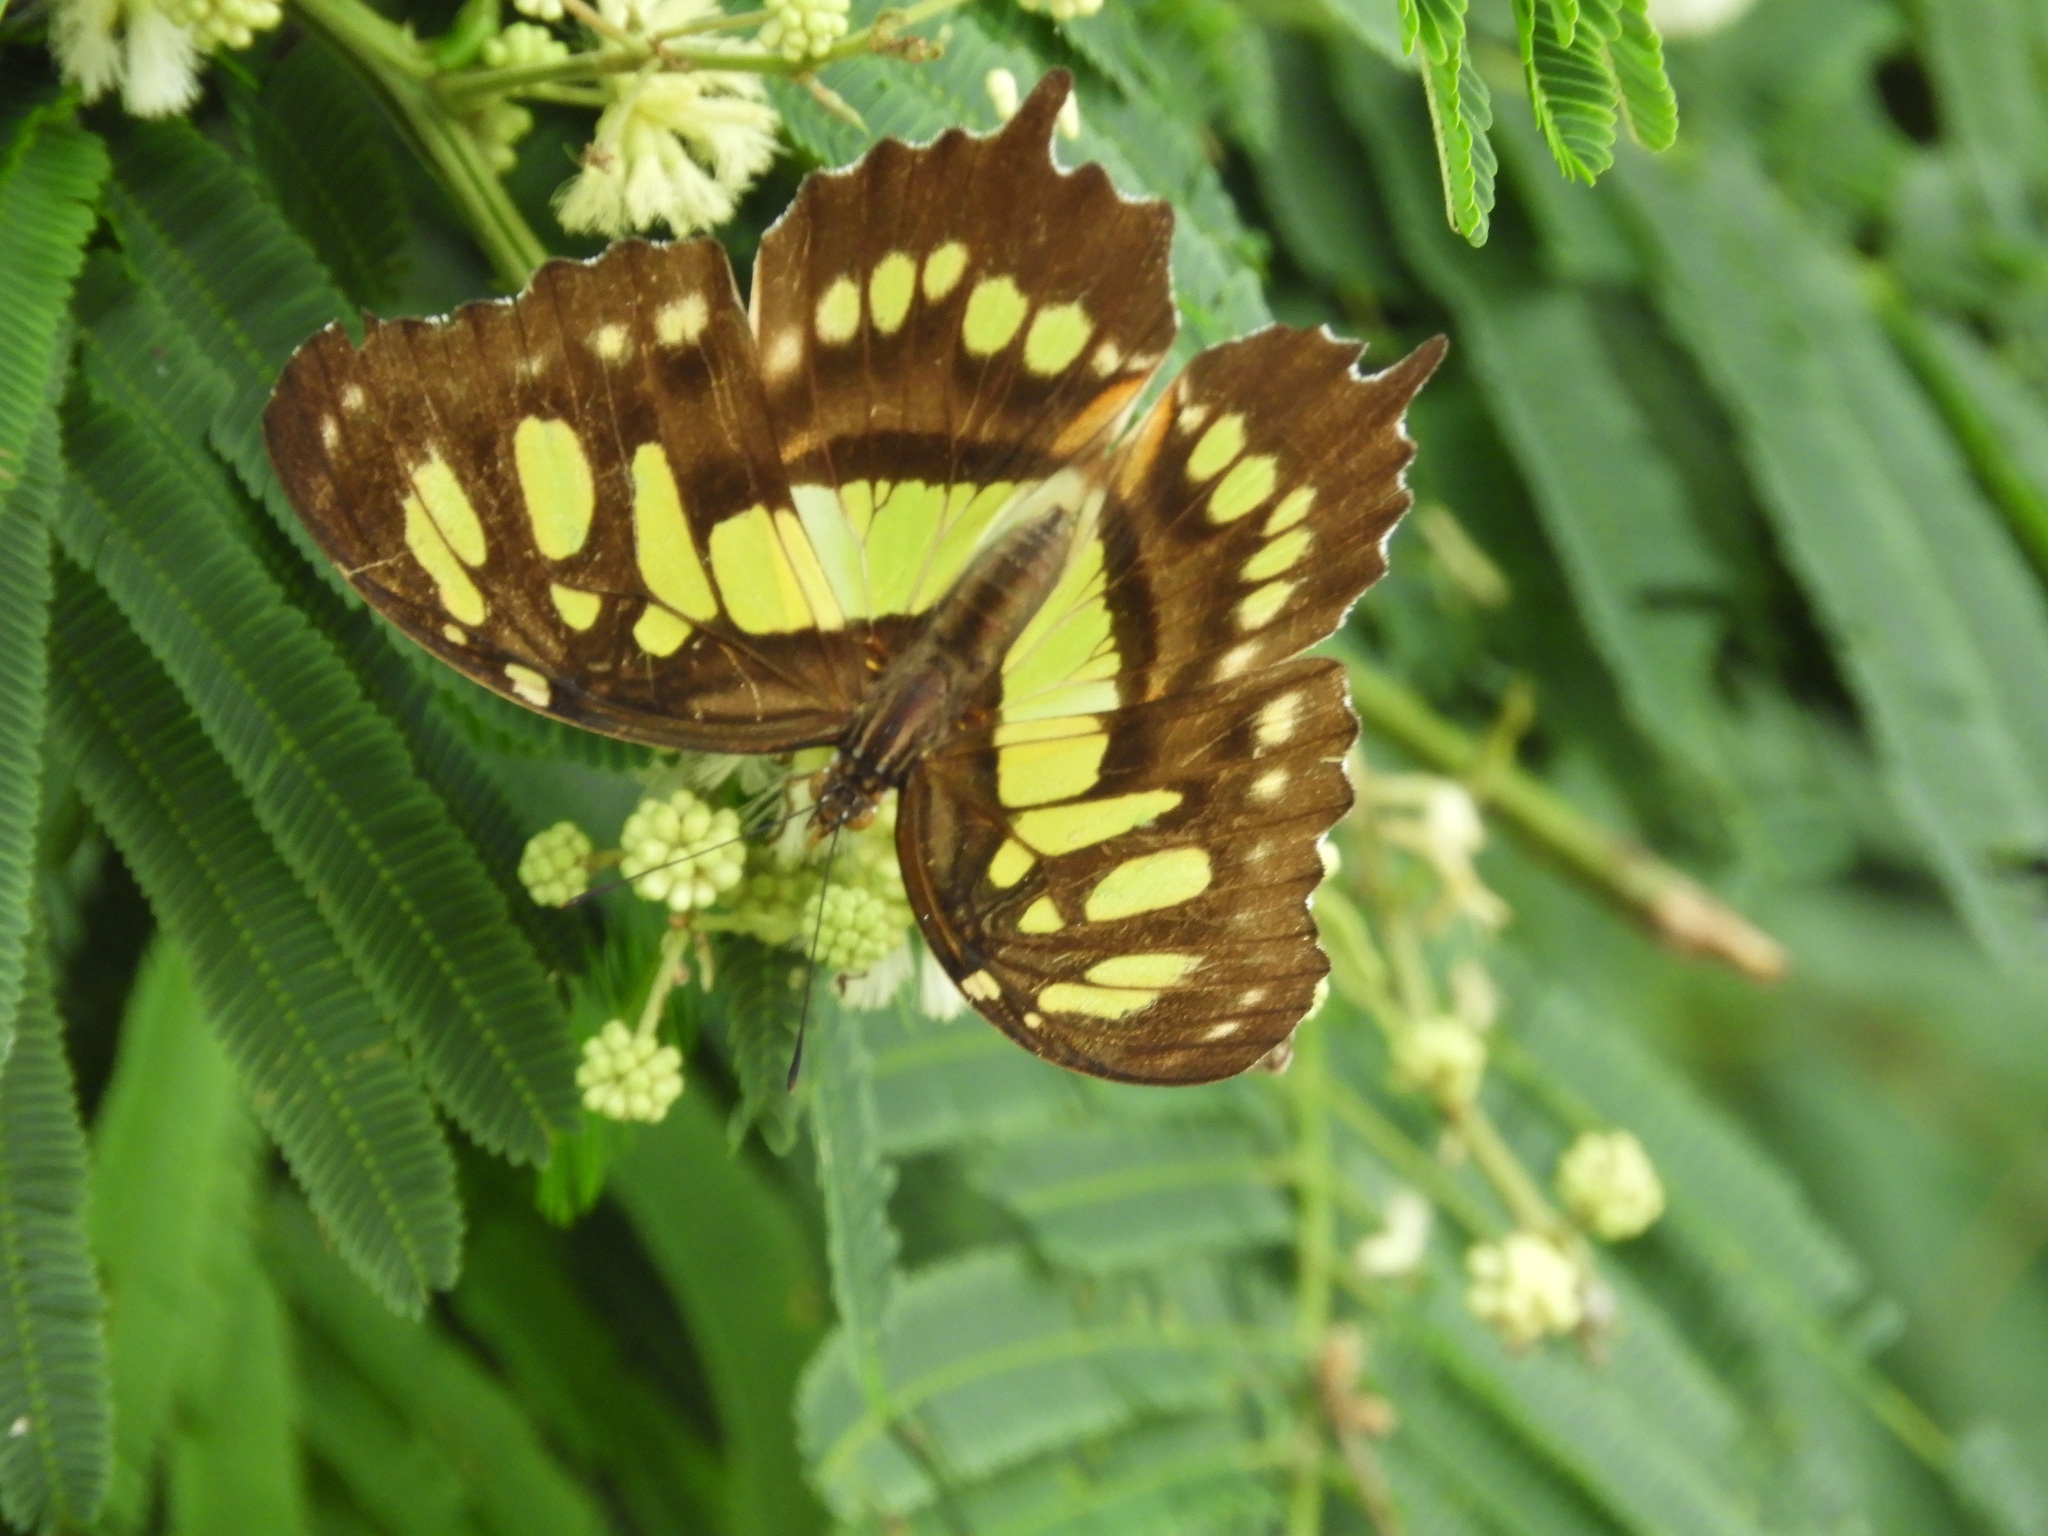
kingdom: Animalia
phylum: Arthropoda
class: Insecta
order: Lepidoptera
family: Nymphalidae
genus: Siproeta
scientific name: Siproeta stelenes
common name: Malachite
